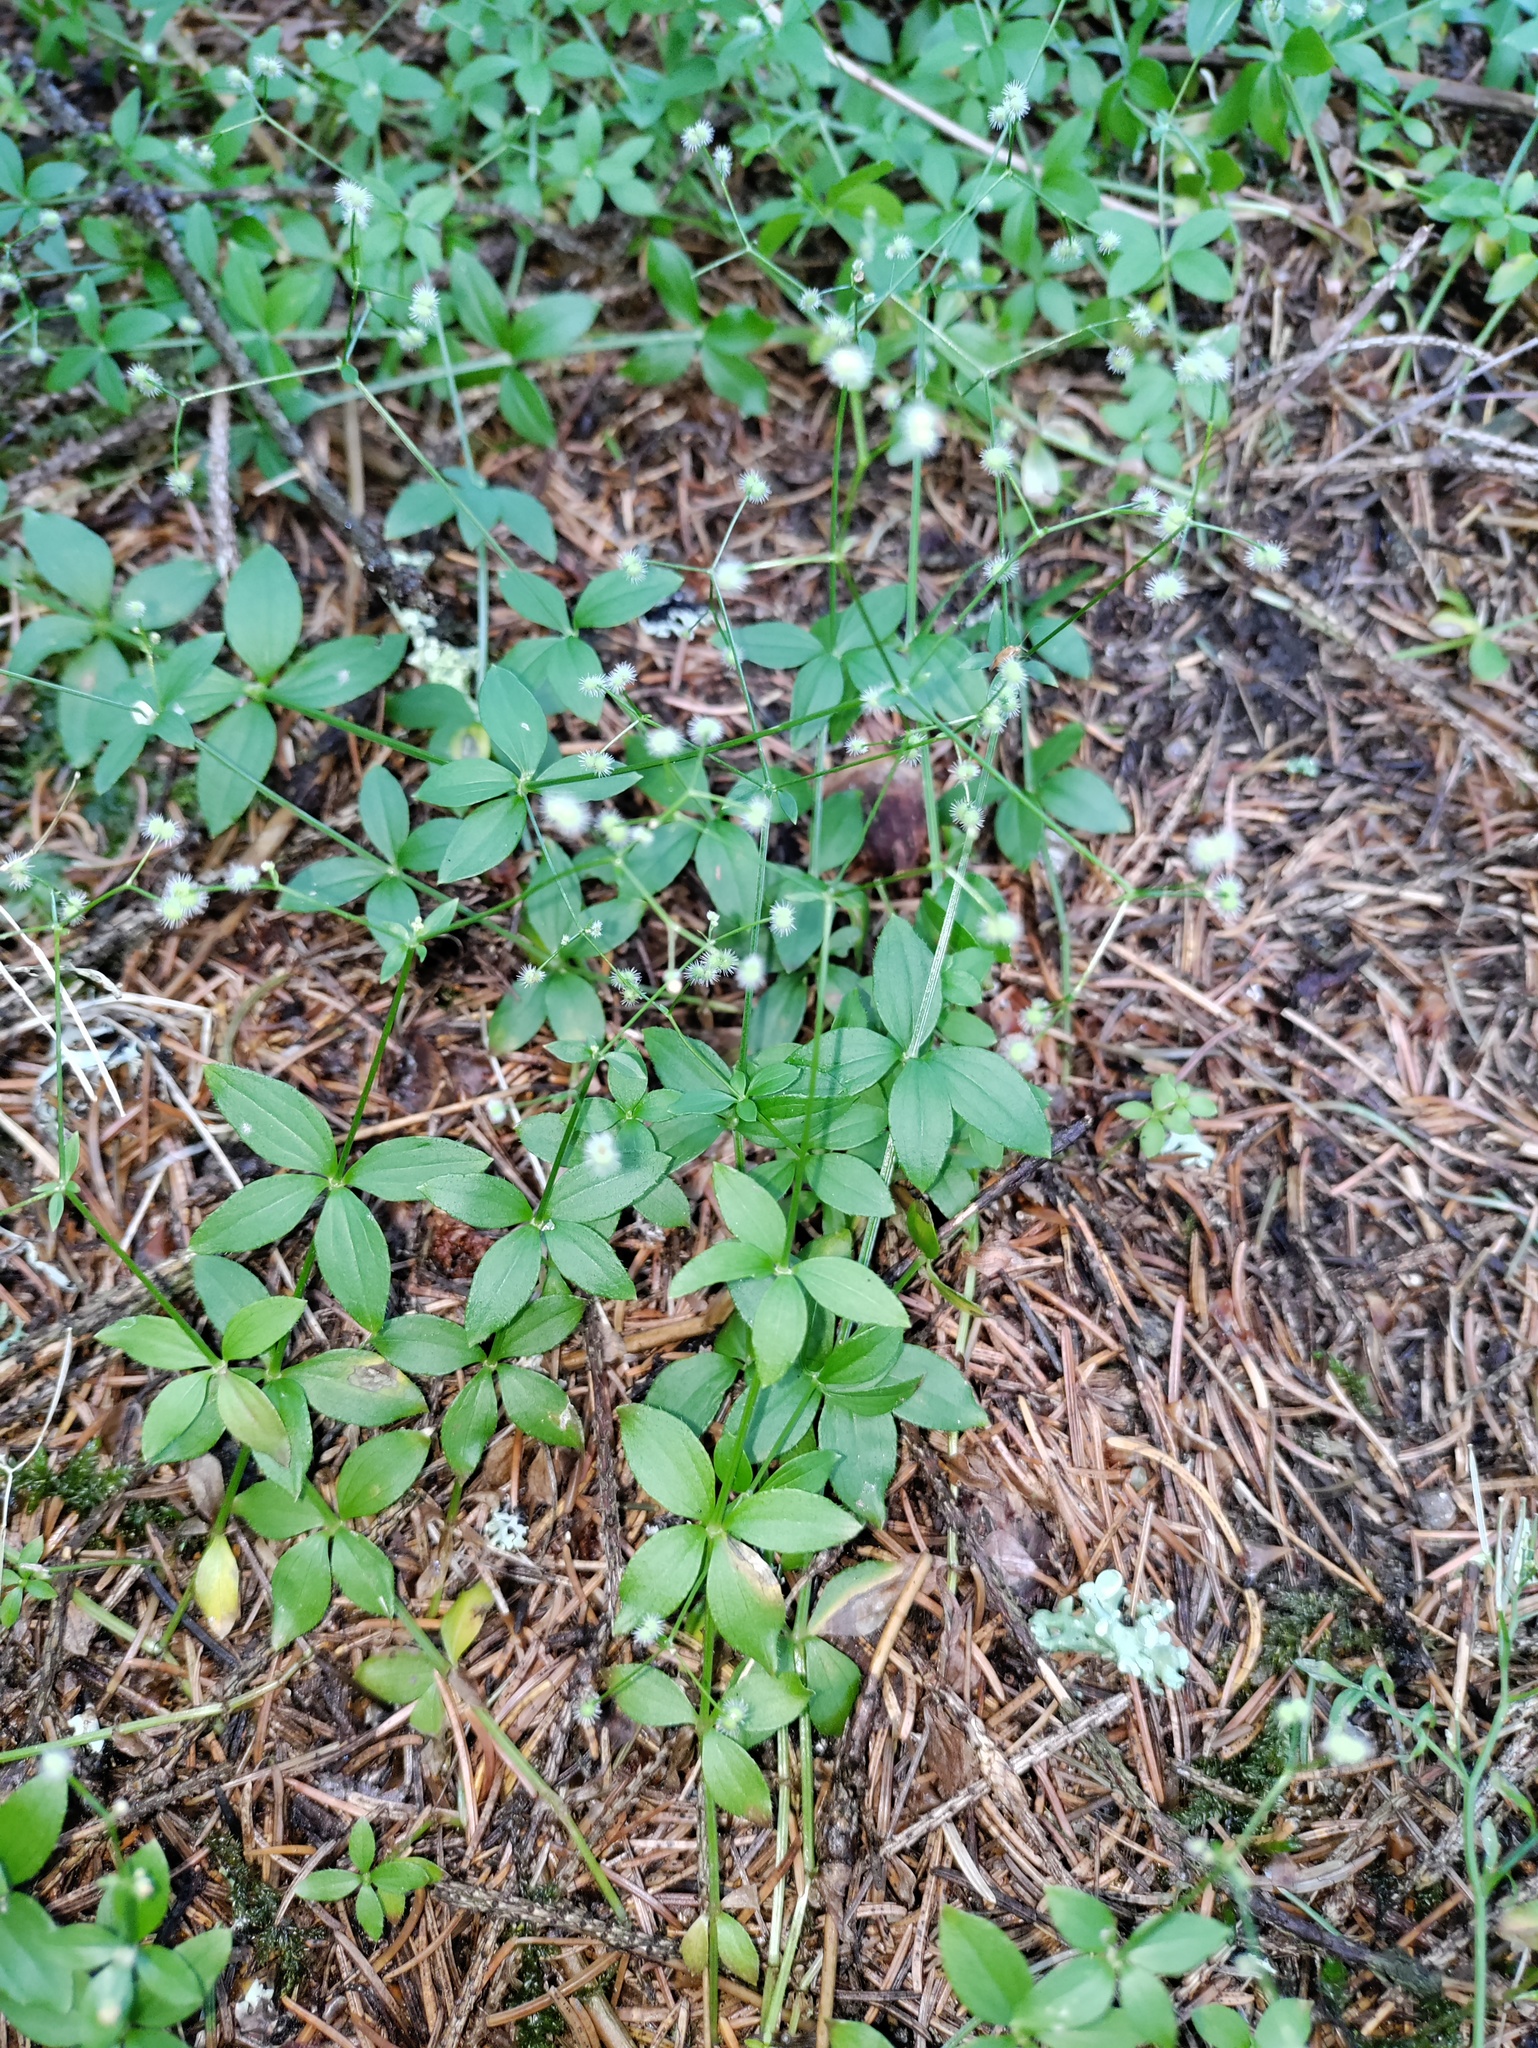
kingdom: Plantae
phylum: Tracheophyta
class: Magnoliopsida
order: Gentianales
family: Rubiaceae
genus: Galium
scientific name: Galium rotundifolium
